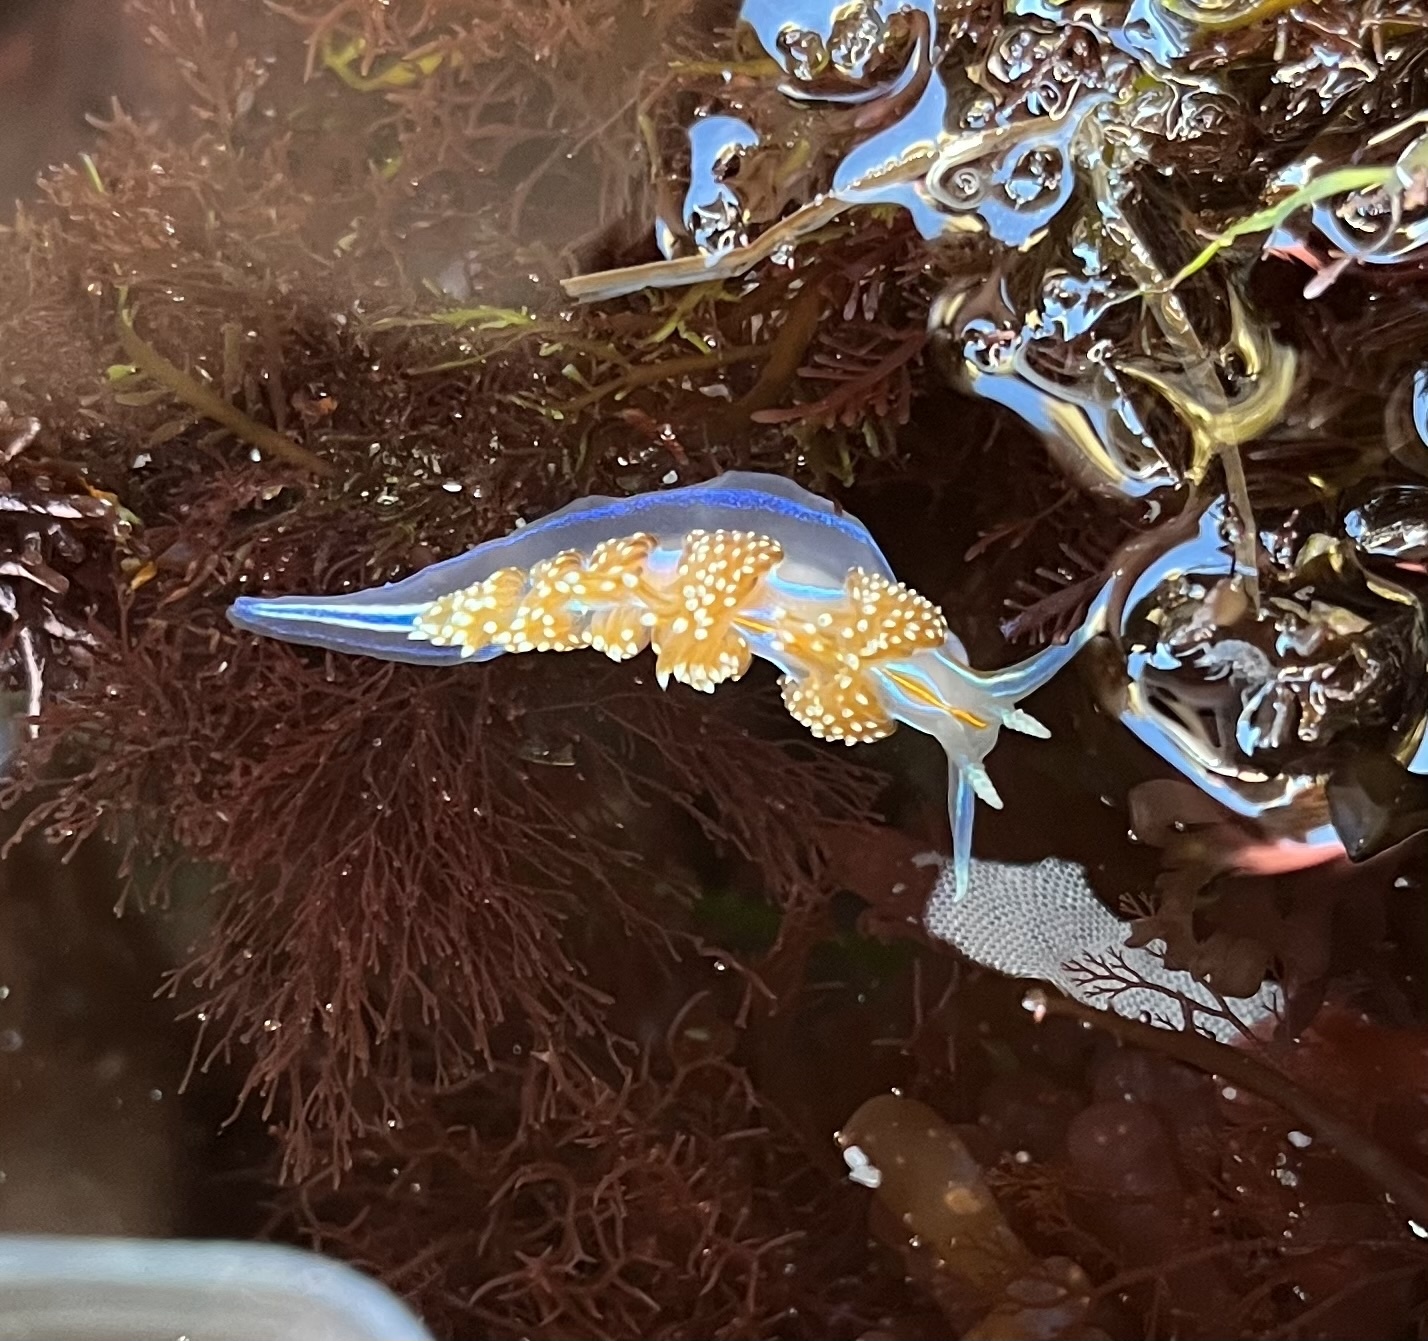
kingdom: Animalia
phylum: Mollusca
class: Gastropoda
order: Nudibranchia
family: Myrrhinidae
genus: Hermissenda
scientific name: Hermissenda opalescens
